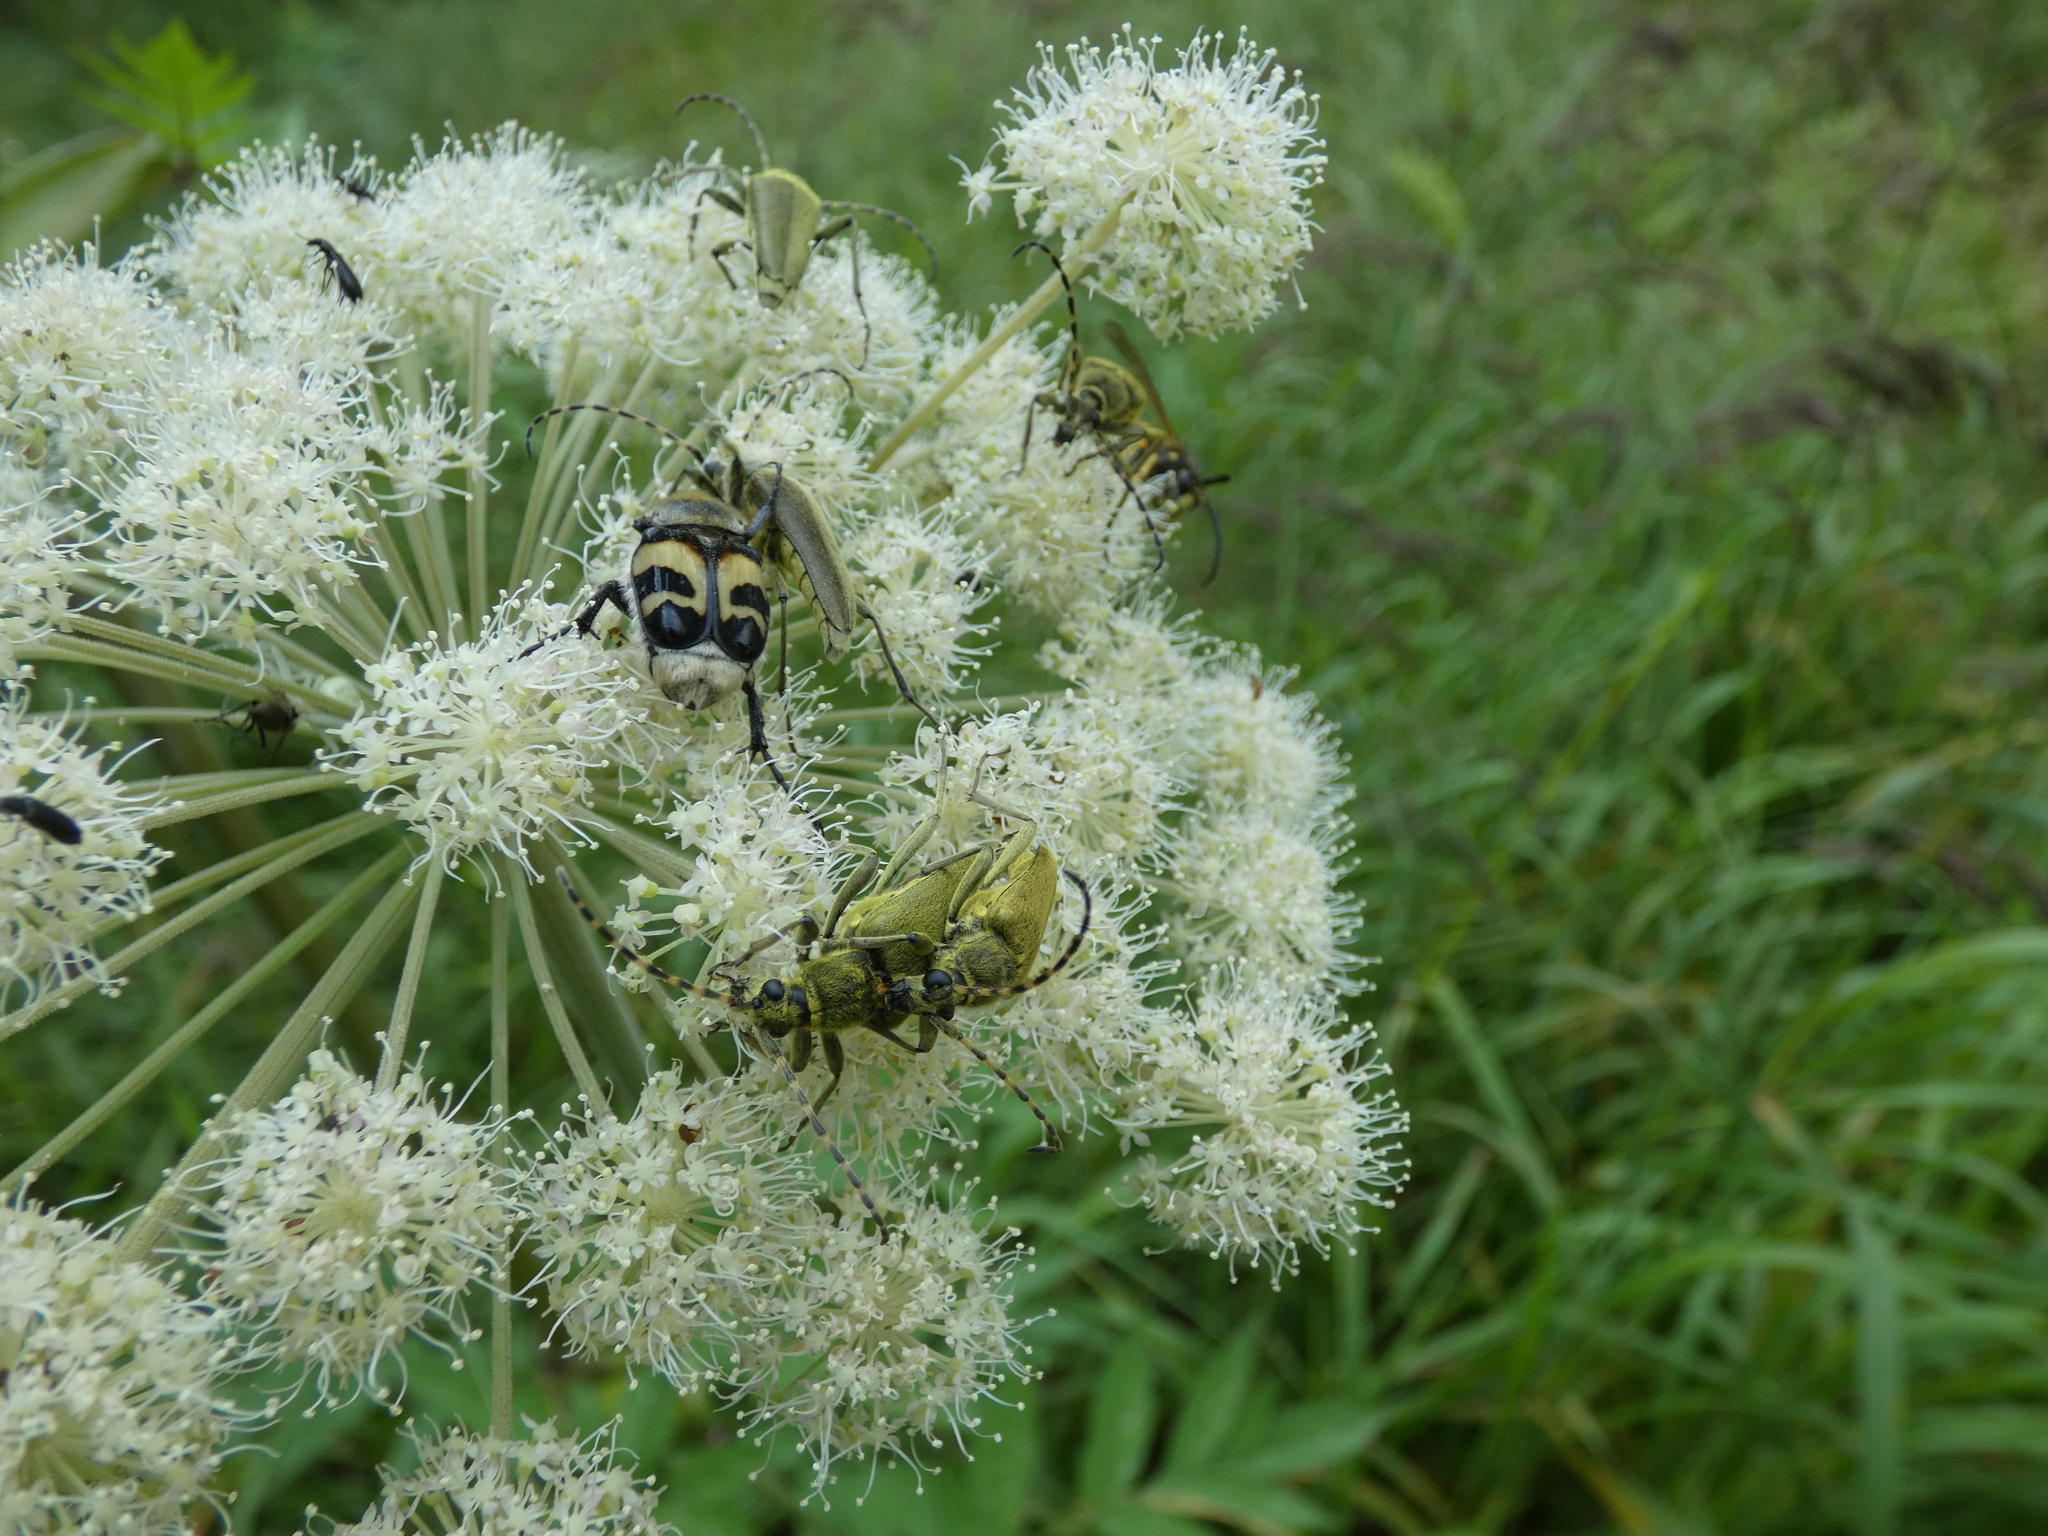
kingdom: Animalia
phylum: Arthropoda
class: Insecta
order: Coleoptera
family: Cerambycidae
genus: Lepturobosca
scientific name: Lepturobosca virens
